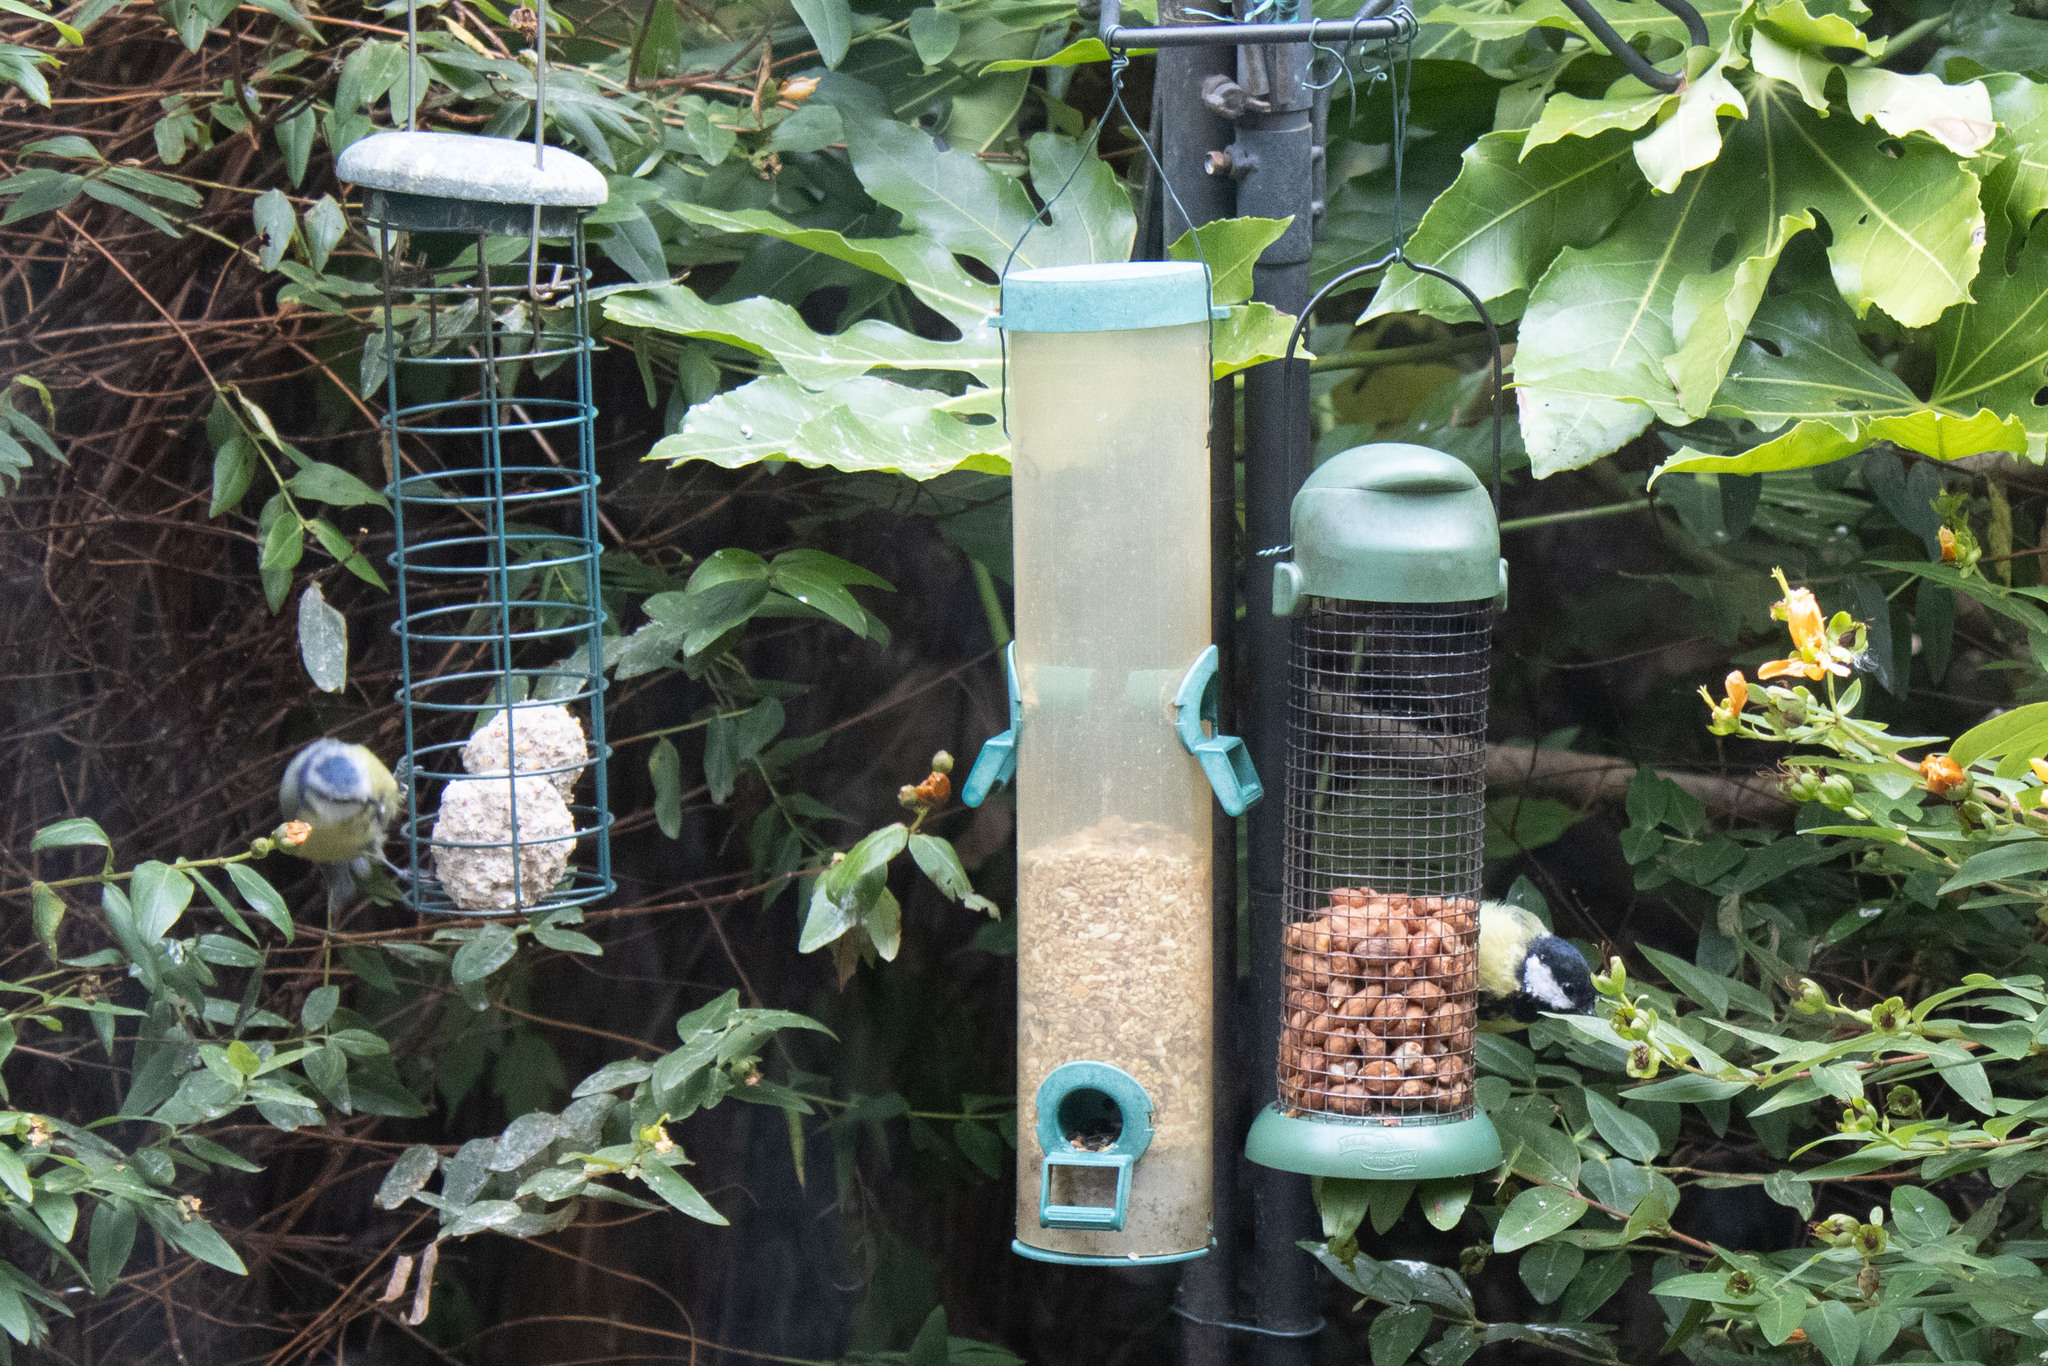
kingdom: Animalia
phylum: Chordata
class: Aves
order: Passeriformes
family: Paridae
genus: Cyanistes
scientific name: Cyanistes caeruleus
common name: Eurasian blue tit
